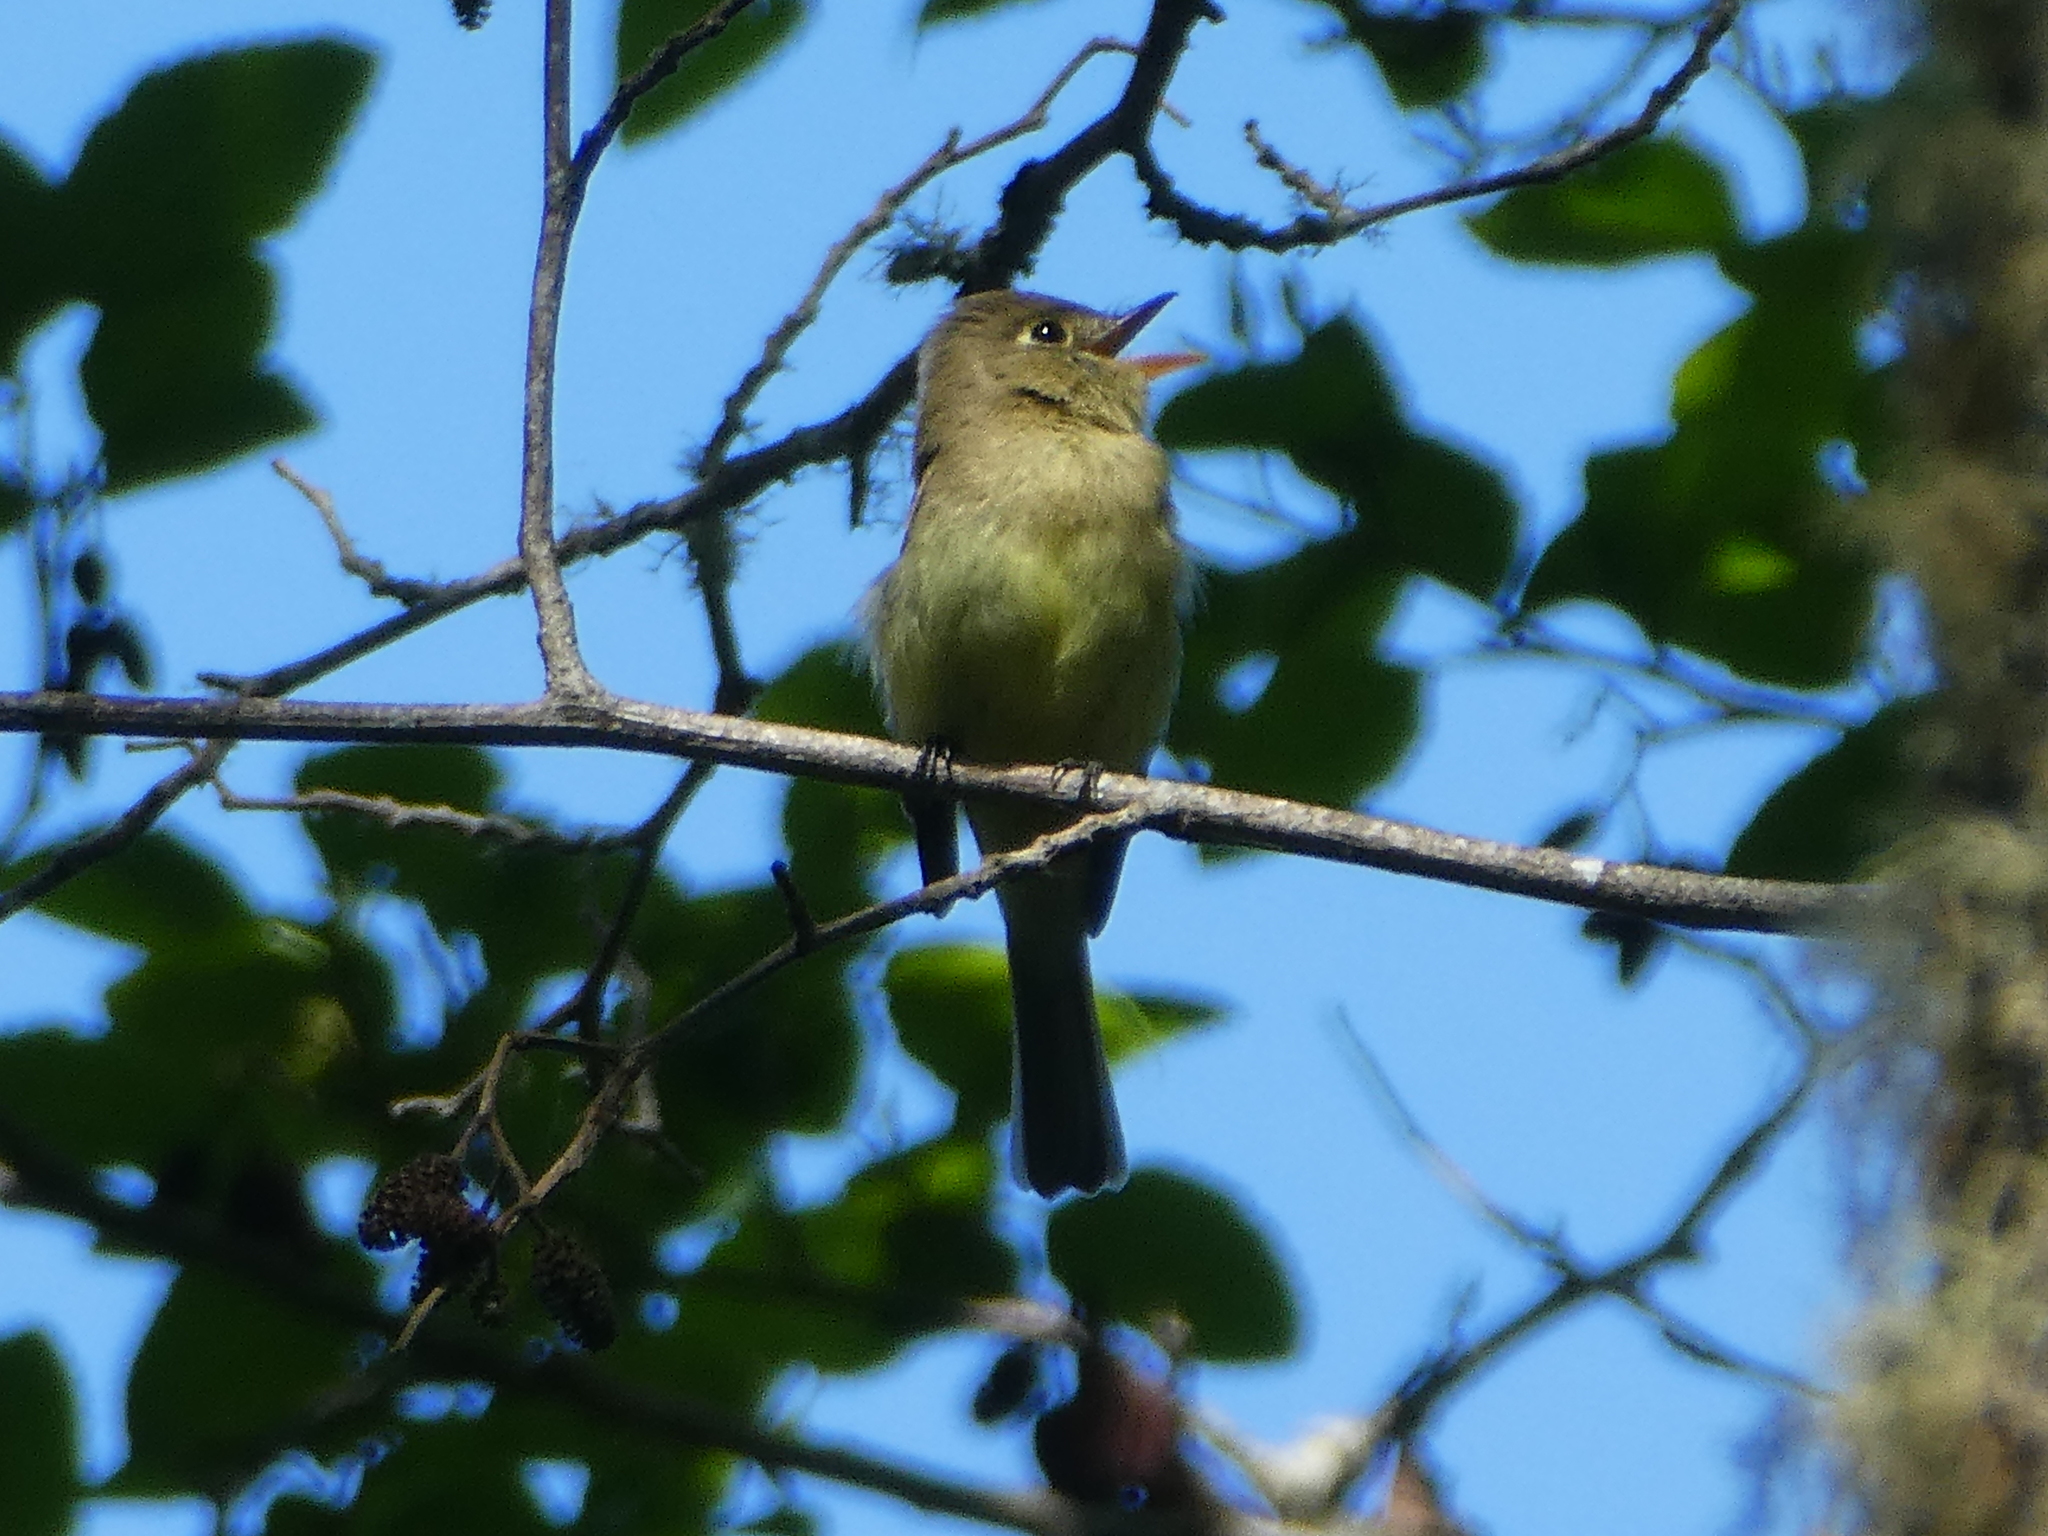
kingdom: Animalia
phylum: Chordata
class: Aves
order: Passeriformes
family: Tyrannidae
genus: Empidonax
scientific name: Empidonax difficilis
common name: Pacific-slope flycatcher
